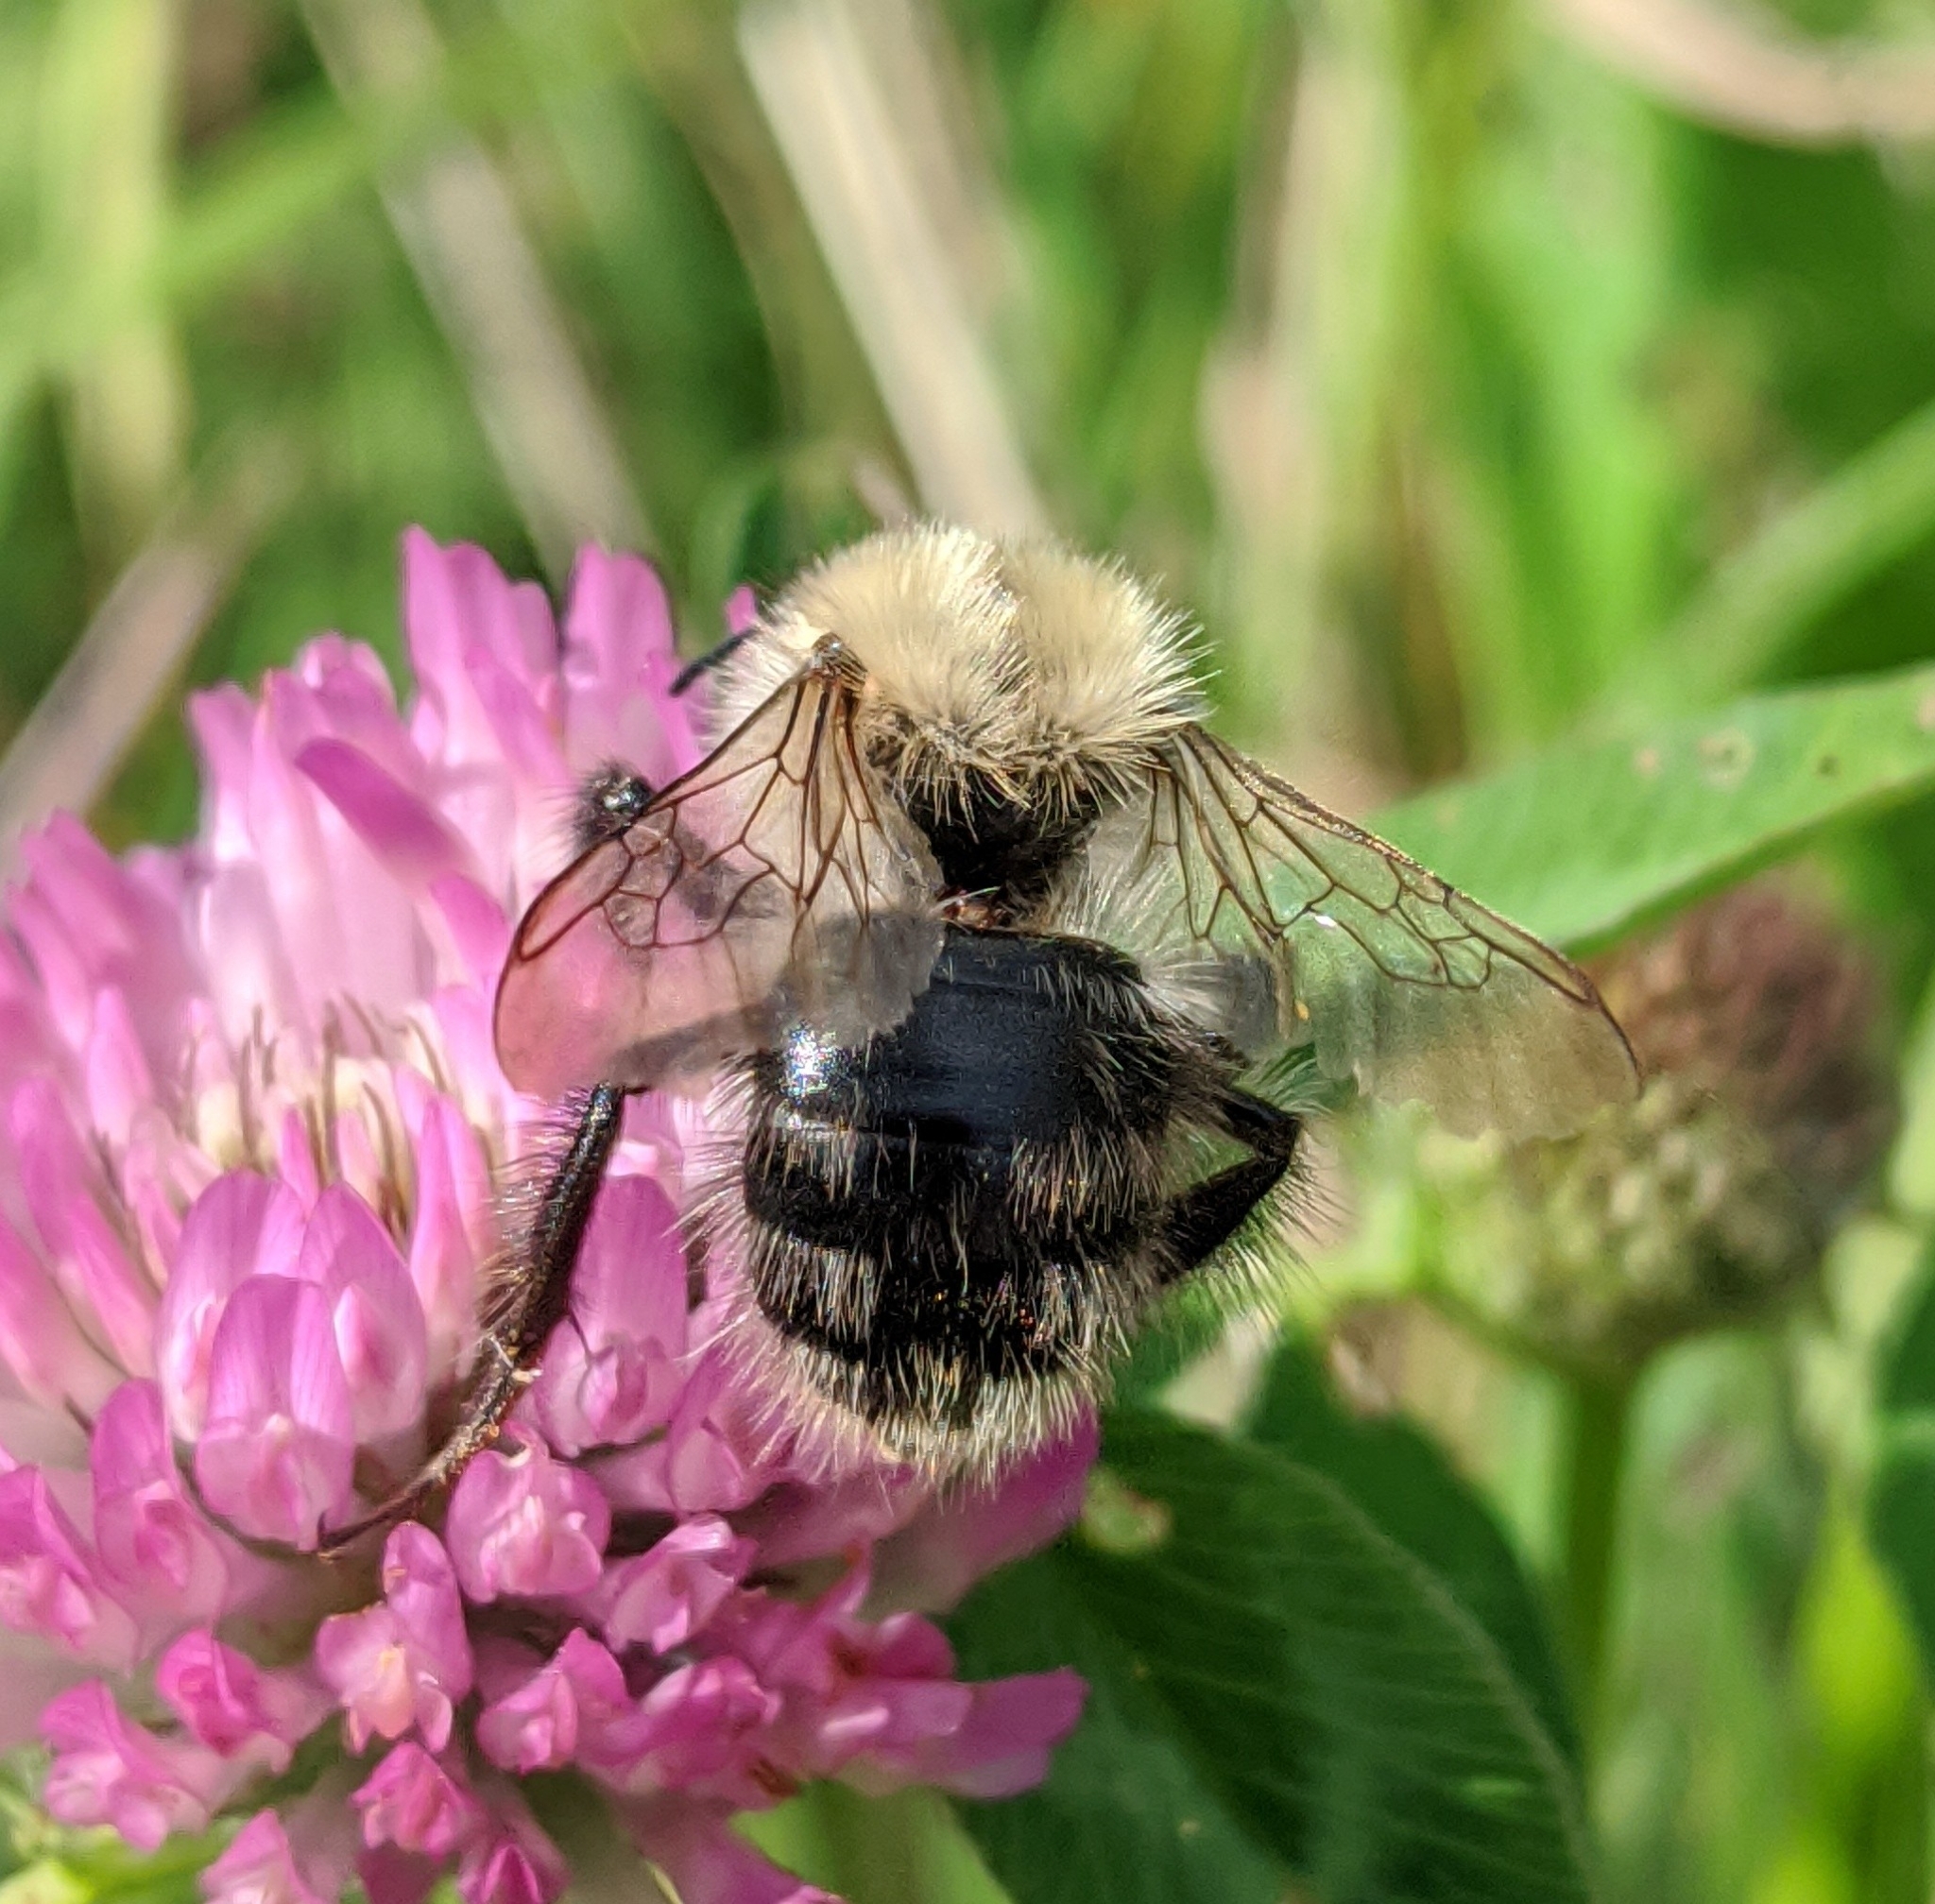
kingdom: Animalia
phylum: Arthropoda
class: Insecta
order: Hymenoptera
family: Apidae
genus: Bombus
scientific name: Bombus pascuorum
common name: Common carder bee
